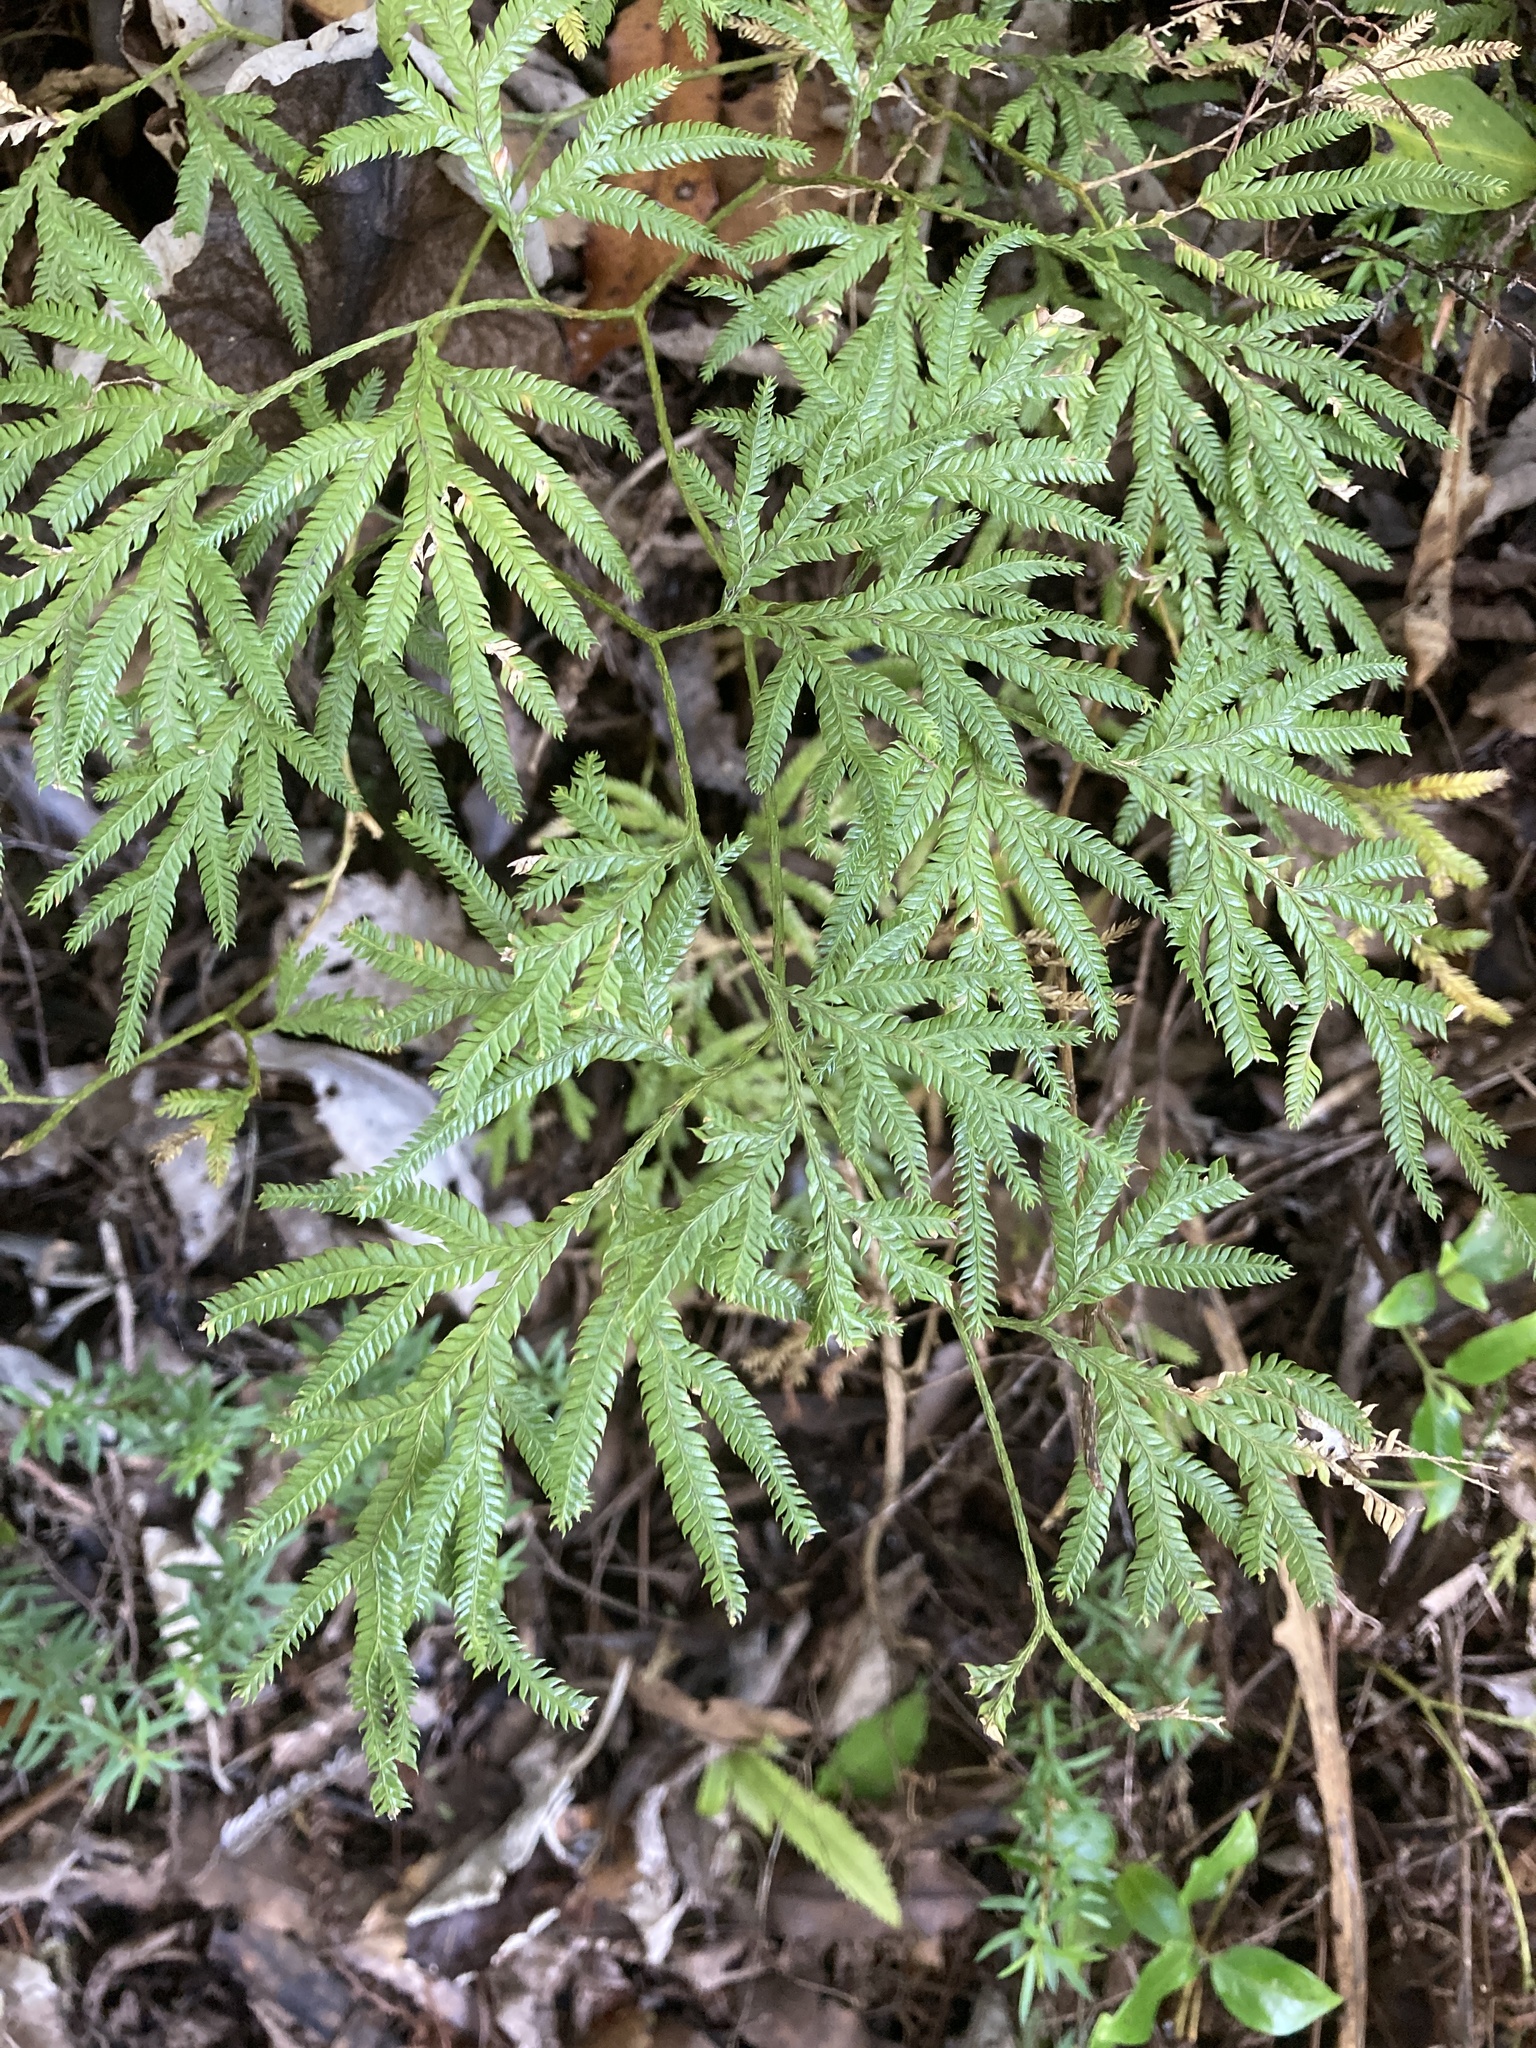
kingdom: Plantae
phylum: Tracheophyta
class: Lycopodiopsida
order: Lycopodiales
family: Lycopodiaceae
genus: Lycopodium
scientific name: Lycopodium volubile
